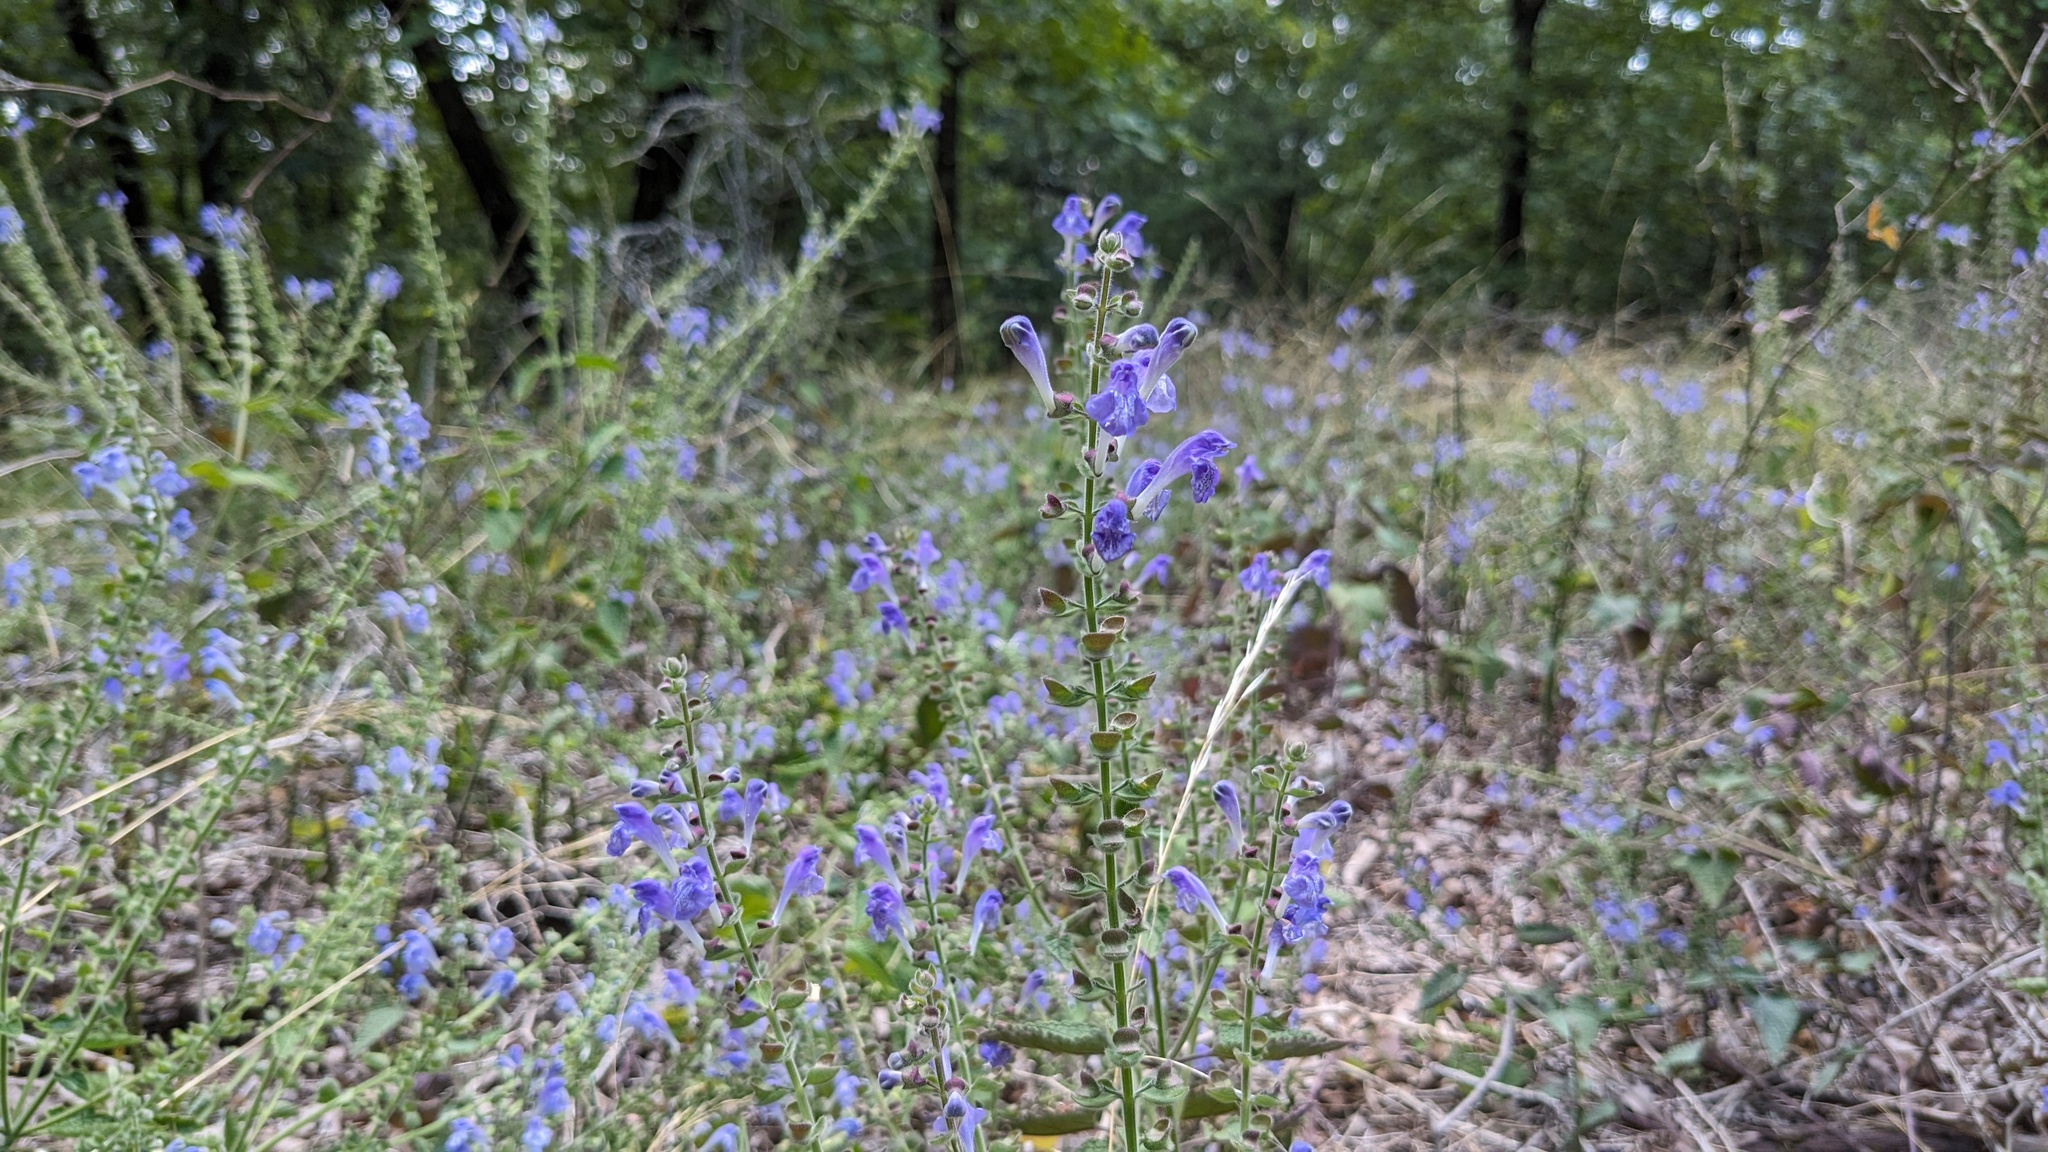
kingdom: Plantae
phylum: Tracheophyta
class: Magnoliopsida
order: Lamiales
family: Lamiaceae
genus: Scutellaria
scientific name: Scutellaria ovata
